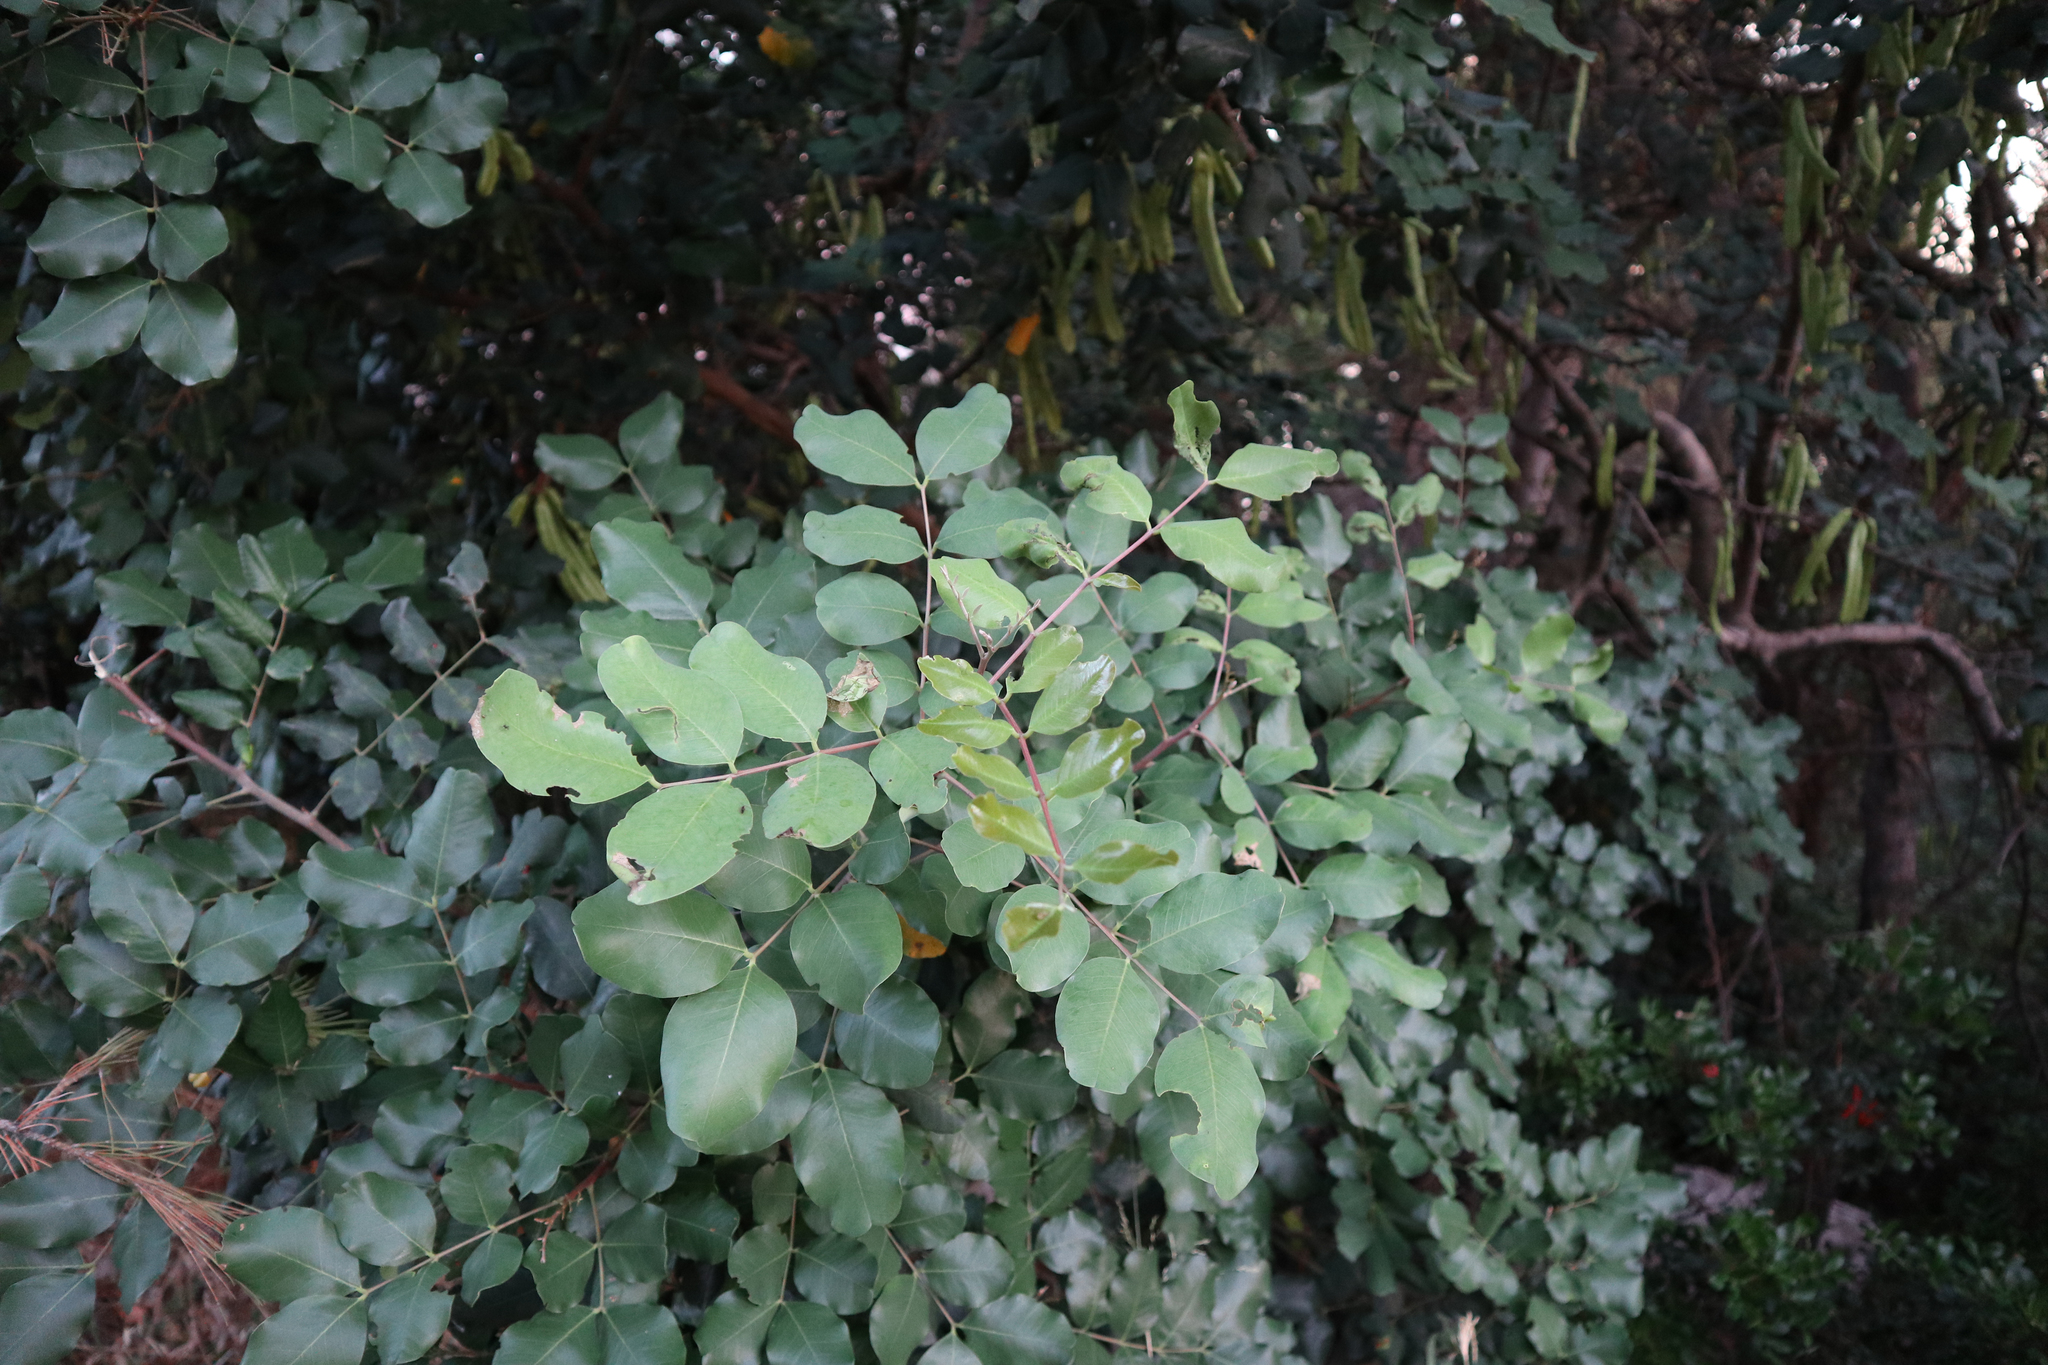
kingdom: Plantae
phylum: Tracheophyta
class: Magnoliopsida
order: Fabales
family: Fabaceae
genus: Ceratonia
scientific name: Ceratonia siliqua
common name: Carob
